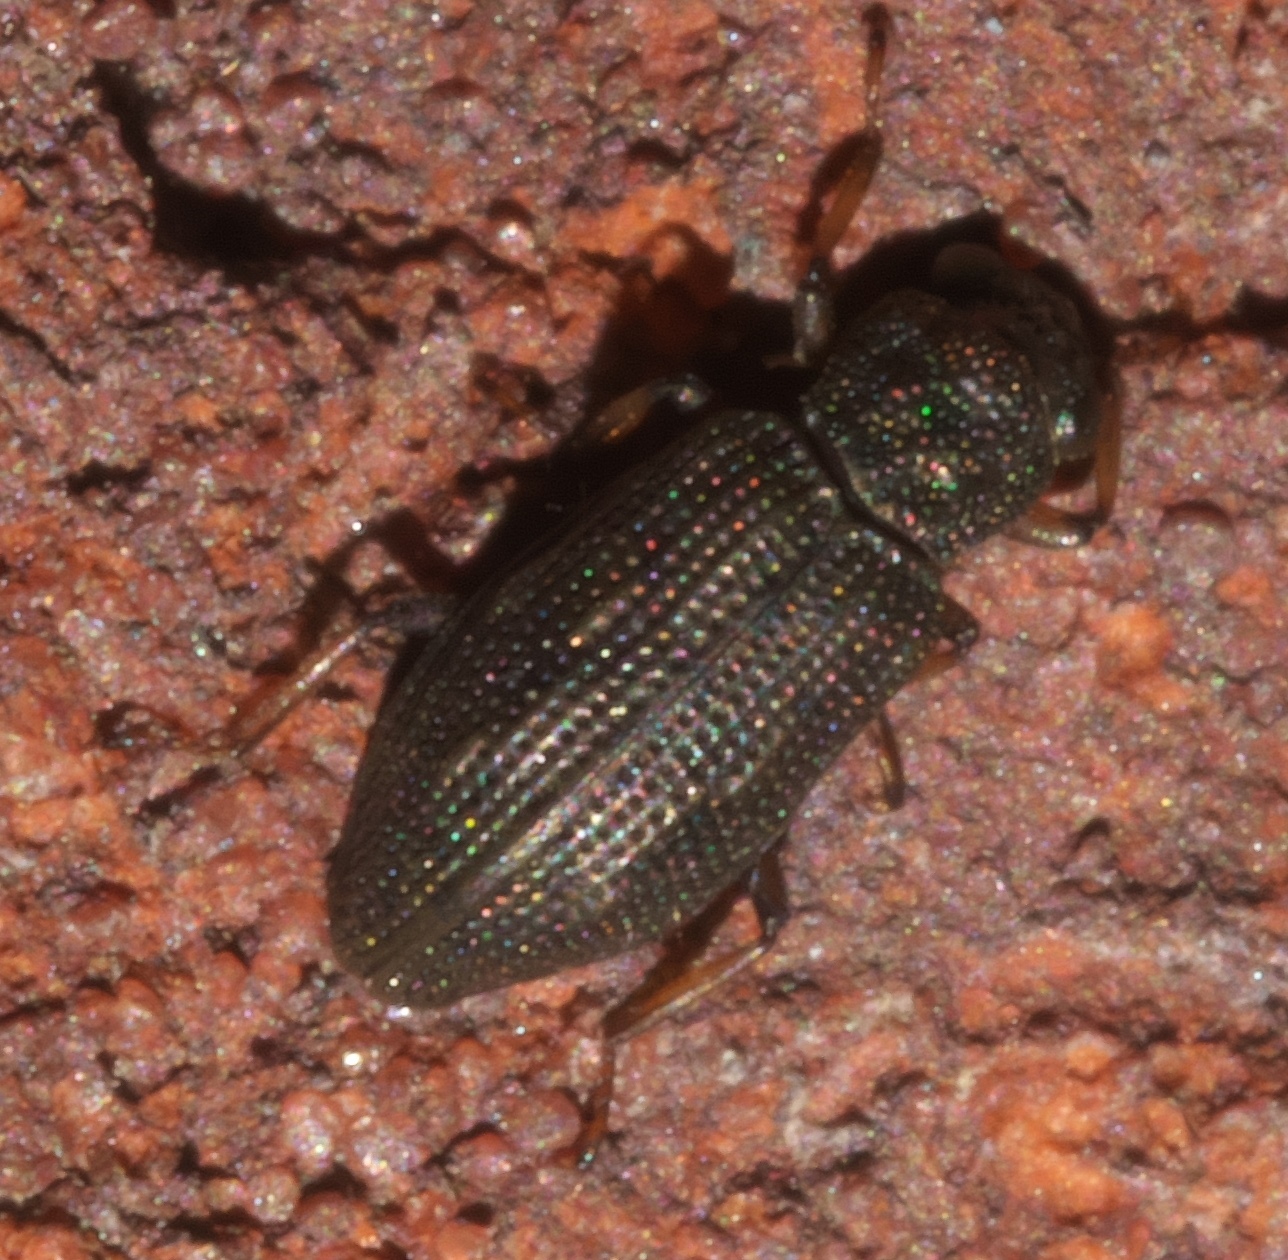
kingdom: Animalia
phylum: Arthropoda
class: Insecta
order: Coleoptera
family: Hydrochidae
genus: Hydrochus
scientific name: Hydrochus
